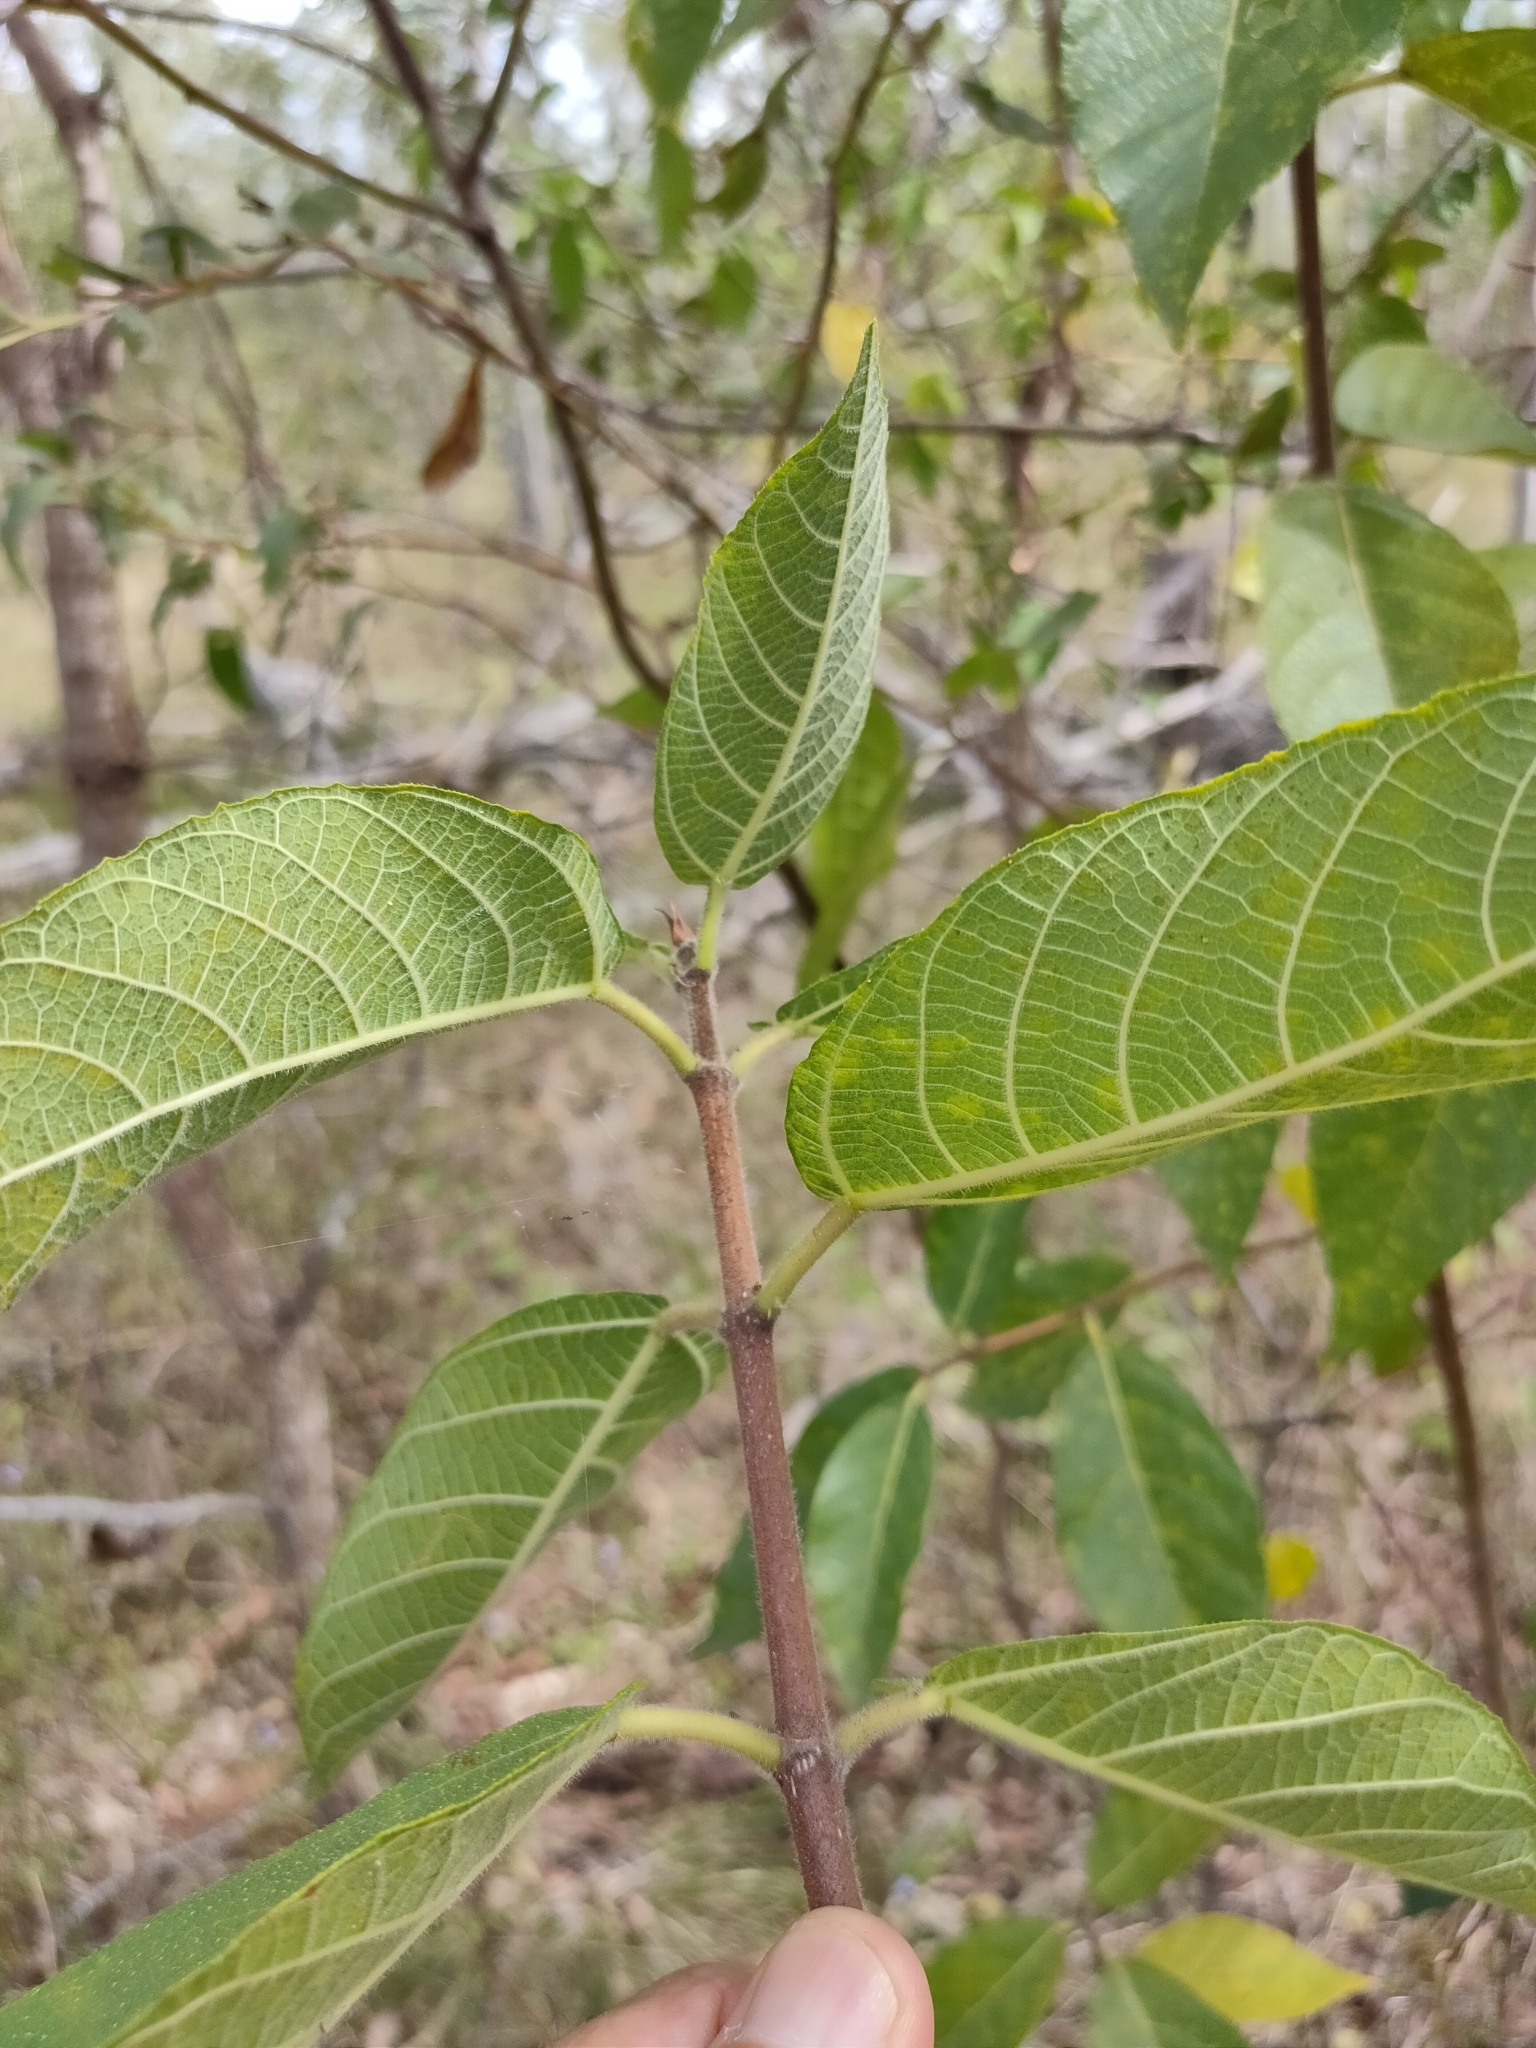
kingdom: Plantae
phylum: Tracheophyta
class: Magnoliopsida
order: Rosales
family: Moraceae
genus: Ficus
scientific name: Ficus opposita
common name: Figwood
